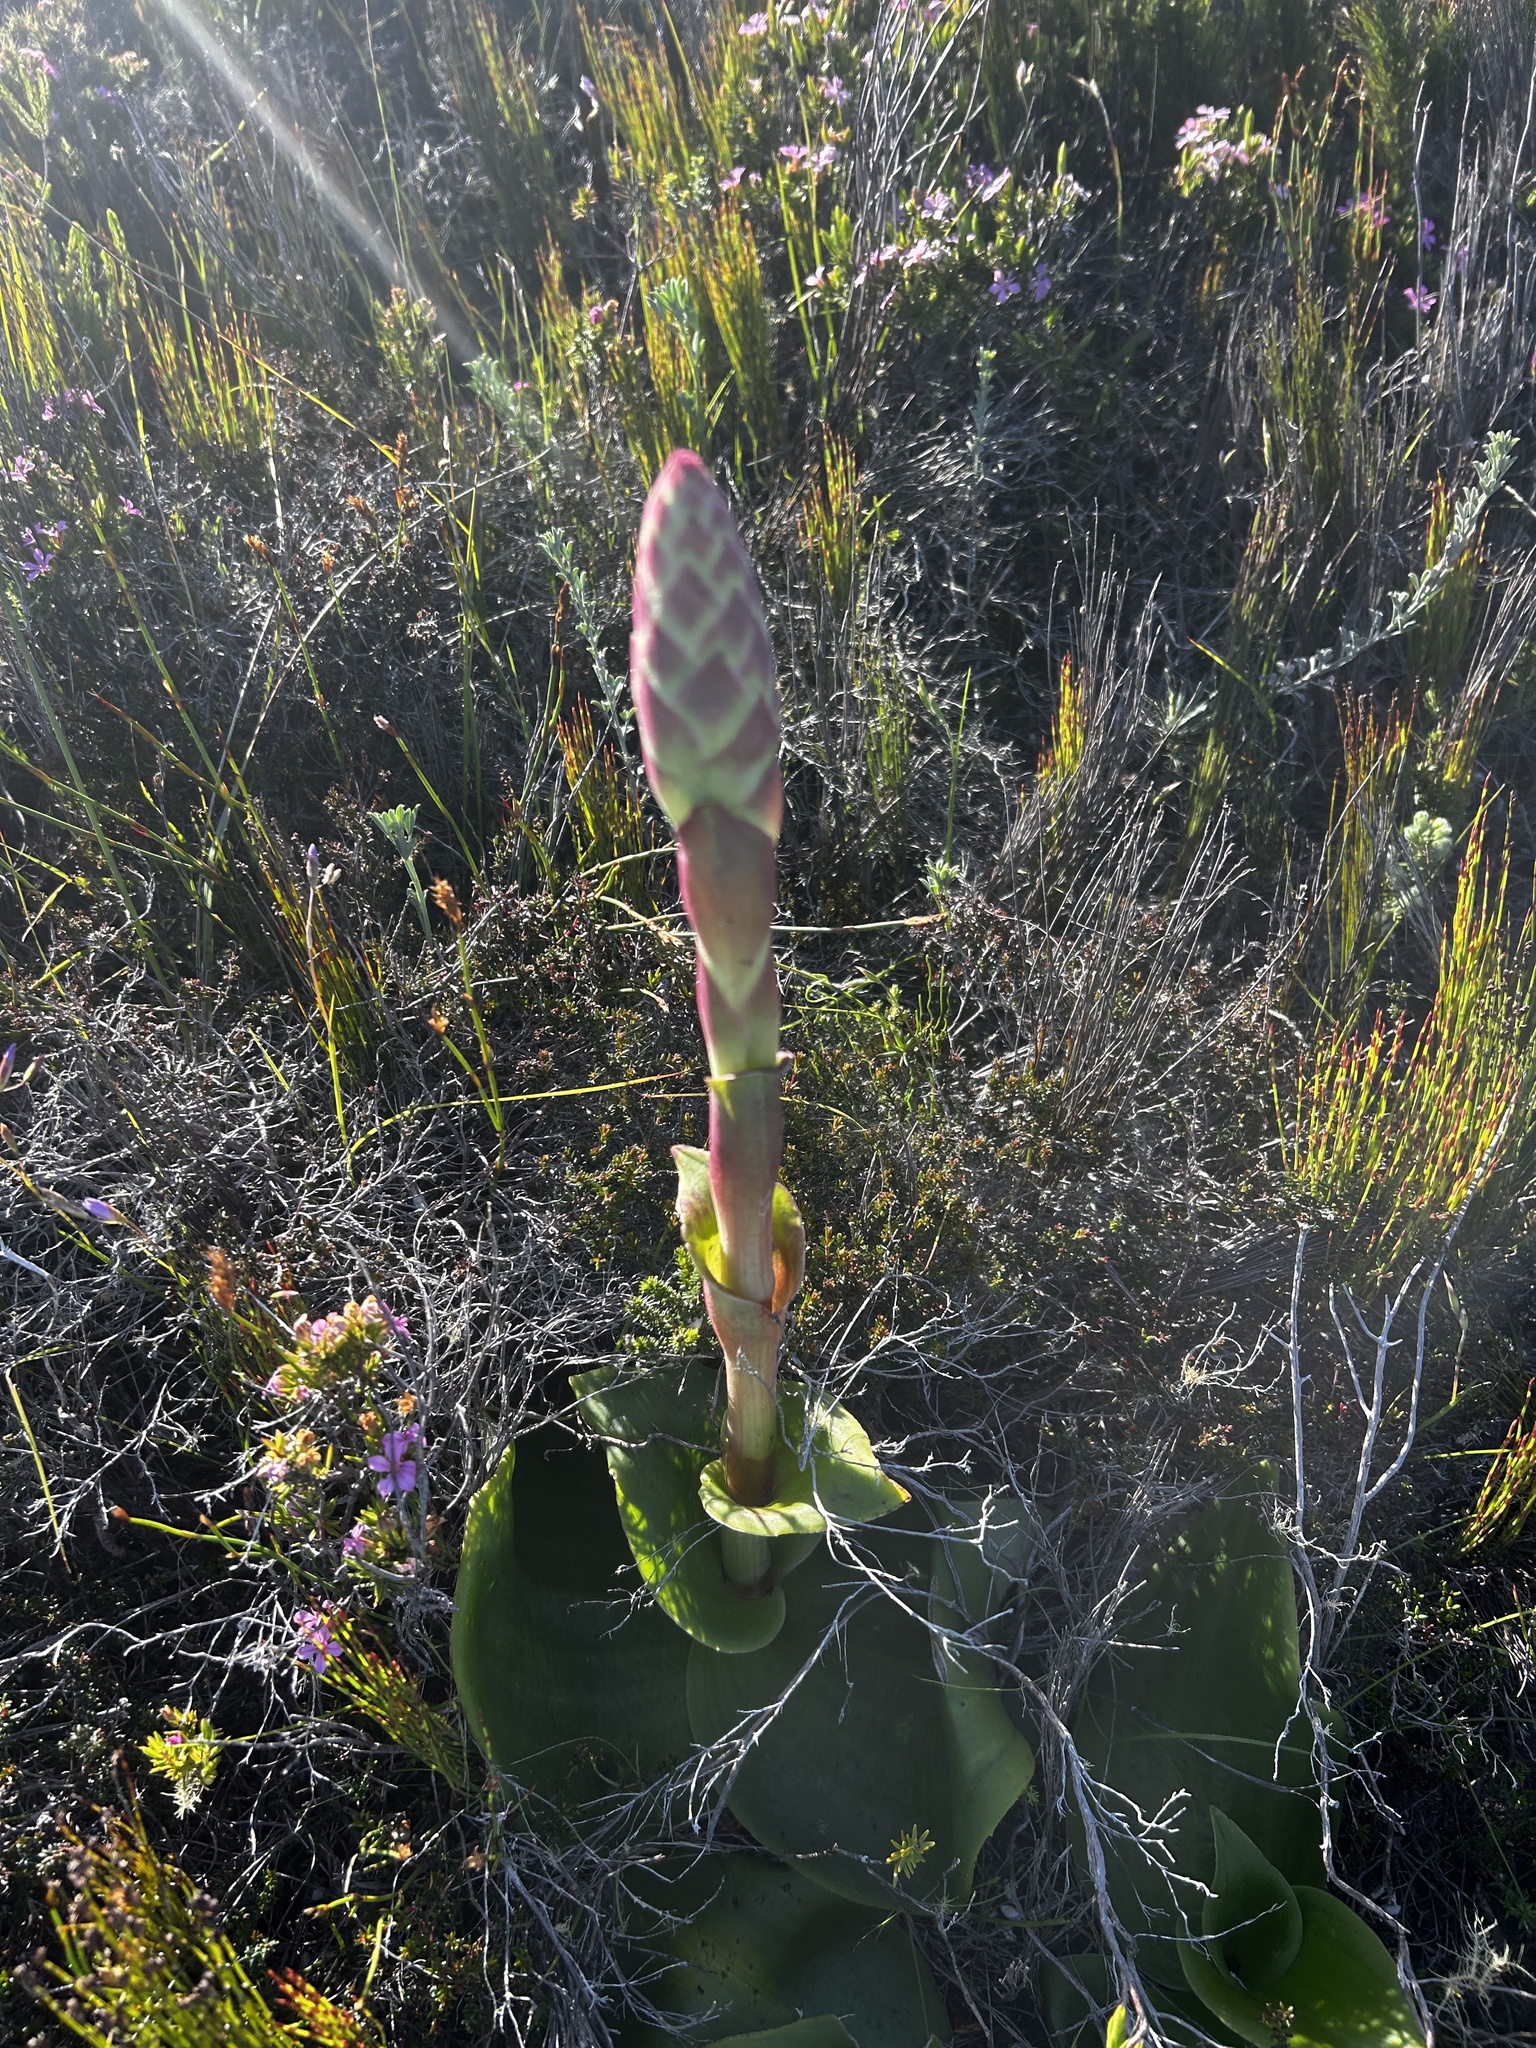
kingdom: Plantae
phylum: Tracheophyta
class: Liliopsida
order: Asparagales
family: Orchidaceae
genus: Satyrium
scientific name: Satyrium carneum
